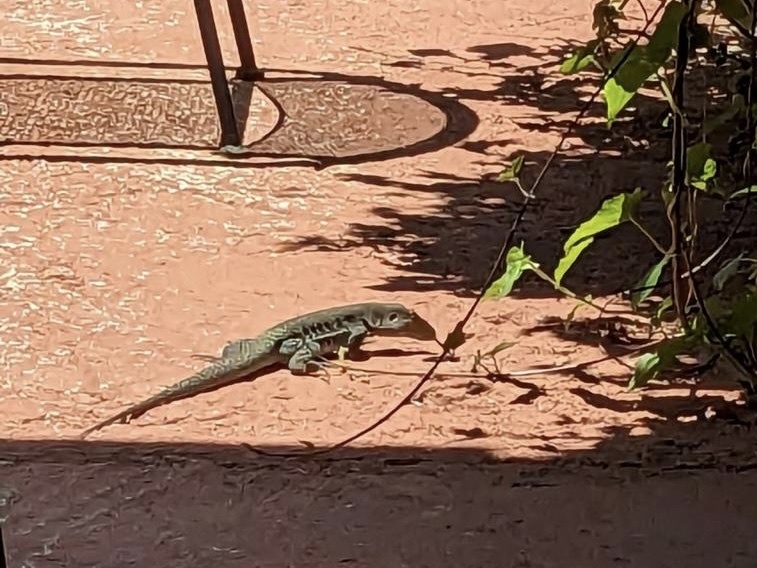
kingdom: Animalia
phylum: Chordata
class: Squamata
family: Teiidae
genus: Pholidoscelis
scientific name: Pholidoscelis exsul
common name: Common puerto rican ameiva
